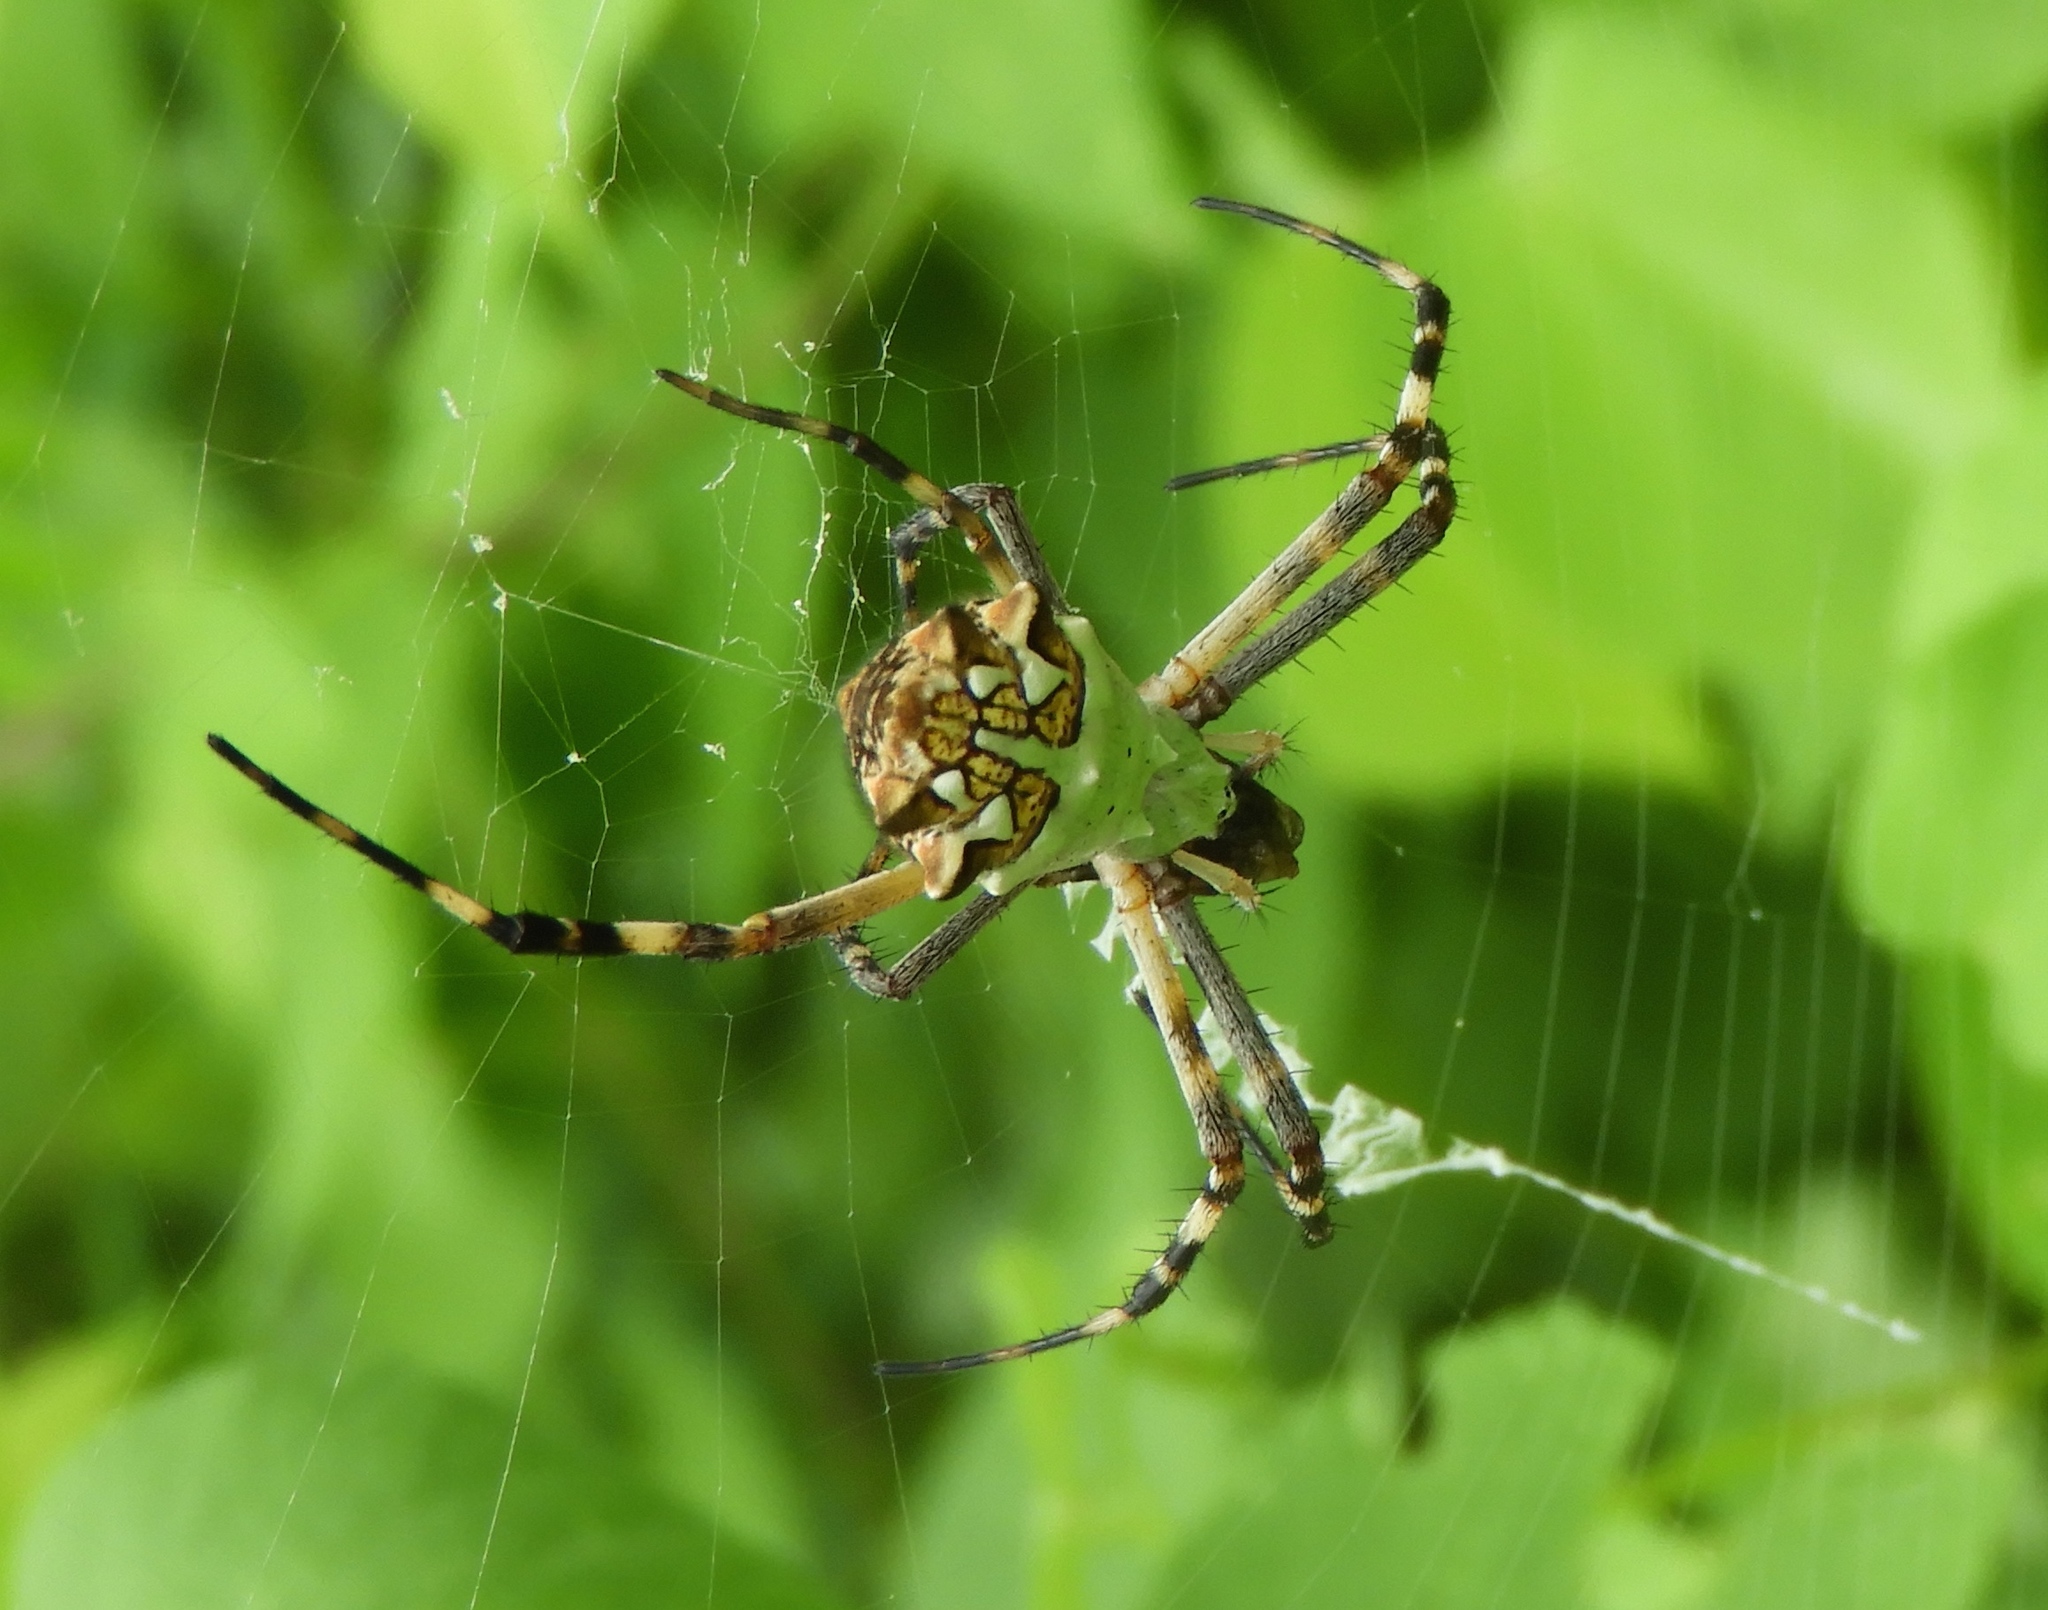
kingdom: Animalia
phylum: Arthropoda
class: Arachnida
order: Araneae
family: Araneidae
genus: Argiope
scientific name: Argiope argentata
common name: Orb weavers
